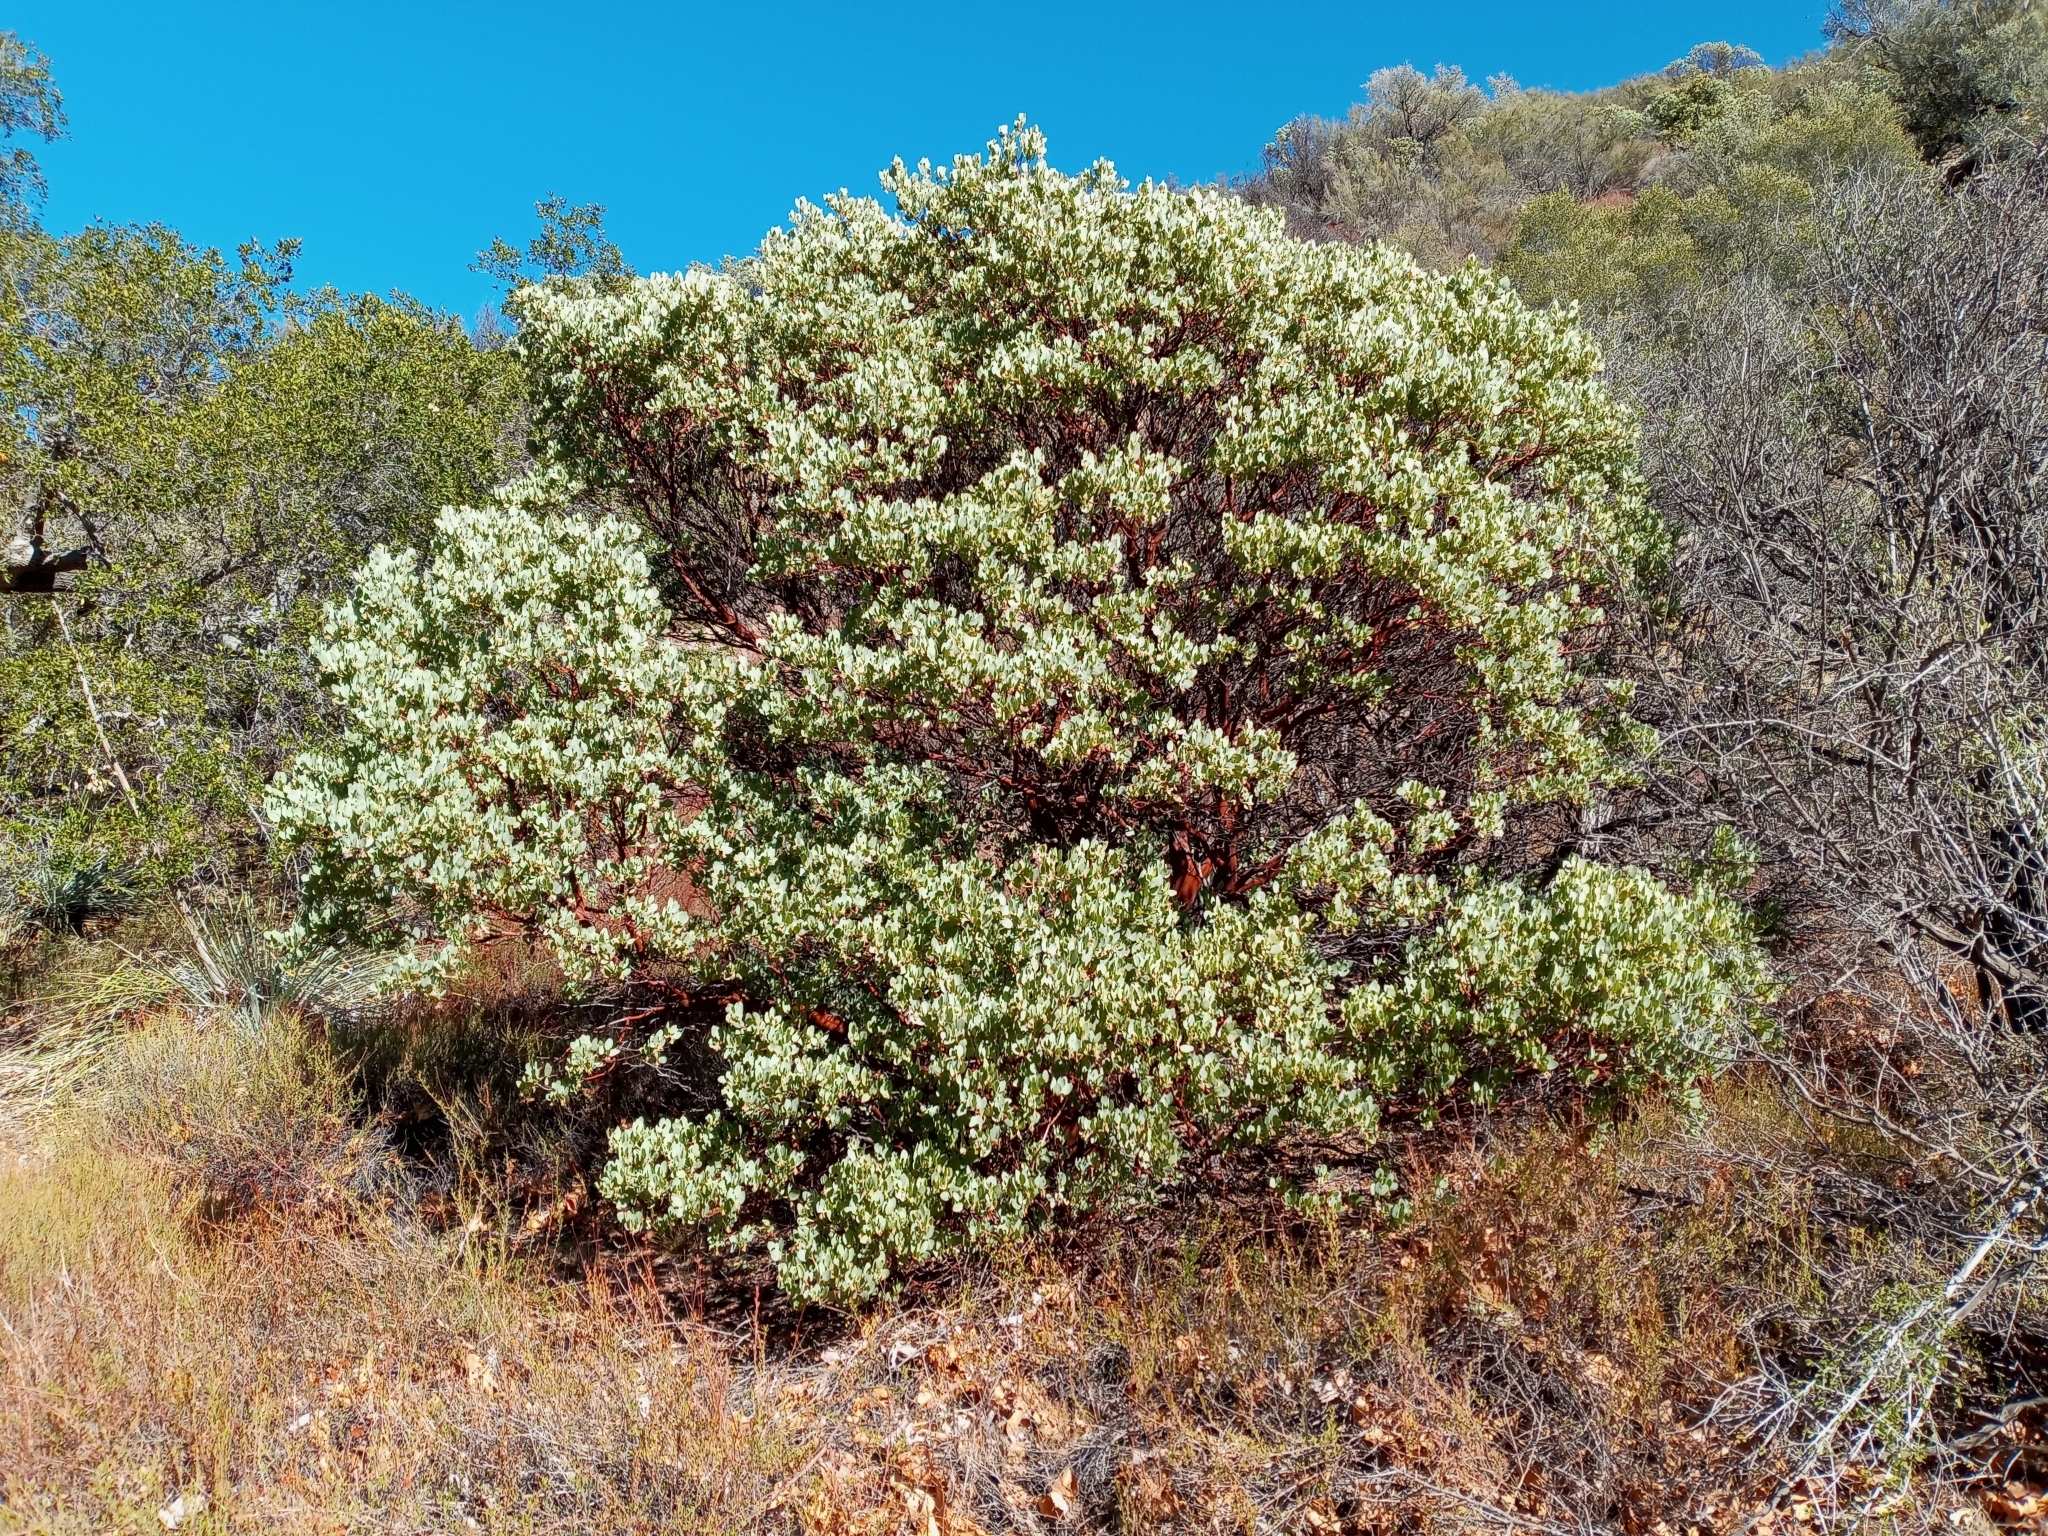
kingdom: Plantae
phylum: Tracheophyta
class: Magnoliopsida
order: Ericales
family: Ericaceae
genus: Arctostaphylos
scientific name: Arctostaphylos glauca
